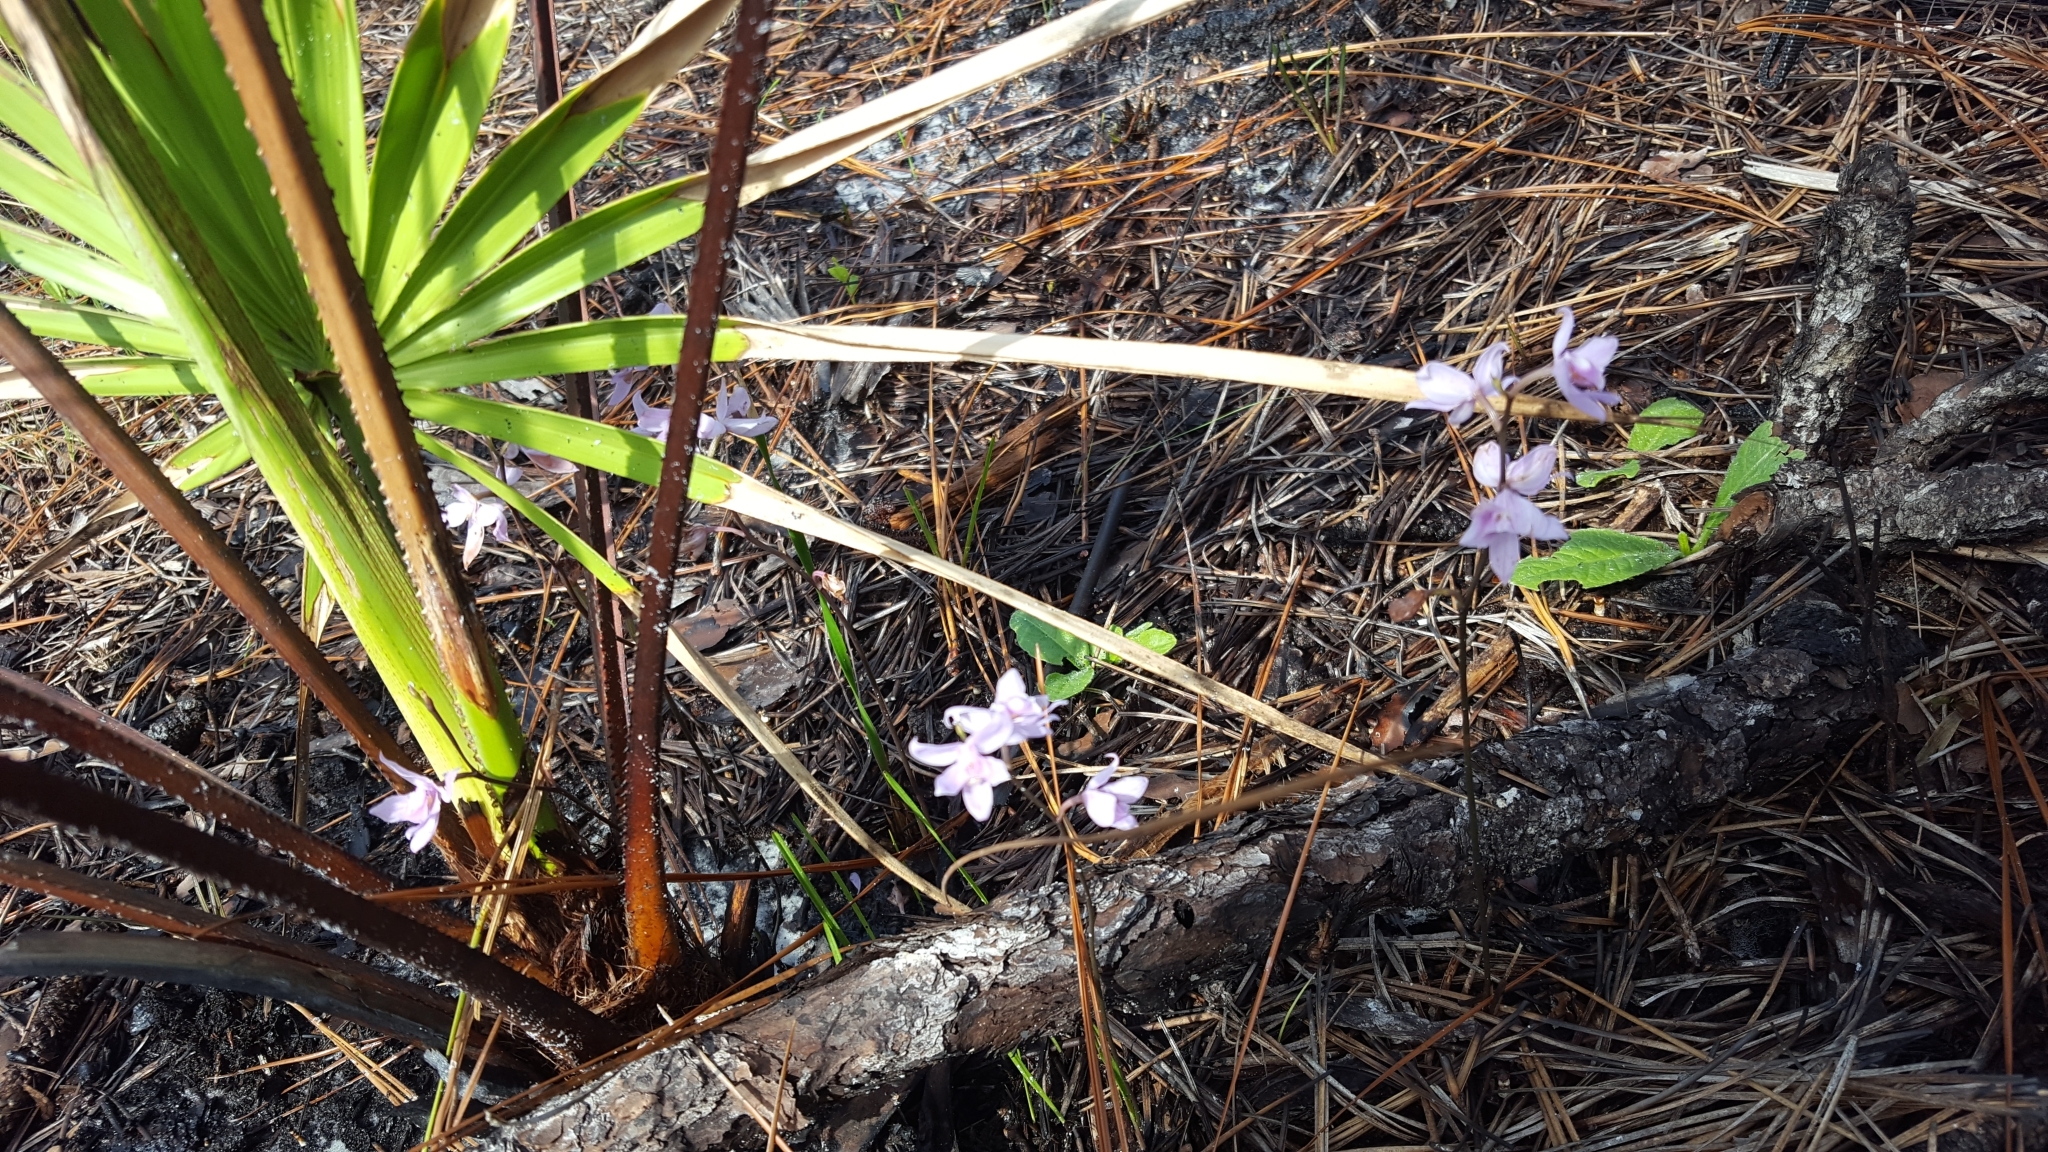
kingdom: Plantae
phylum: Tracheophyta
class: Liliopsida
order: Asparagales
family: Orchidaceae
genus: Calopogon
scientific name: Calopogon multiflorus
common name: Many-flowered grass-pink orchid
